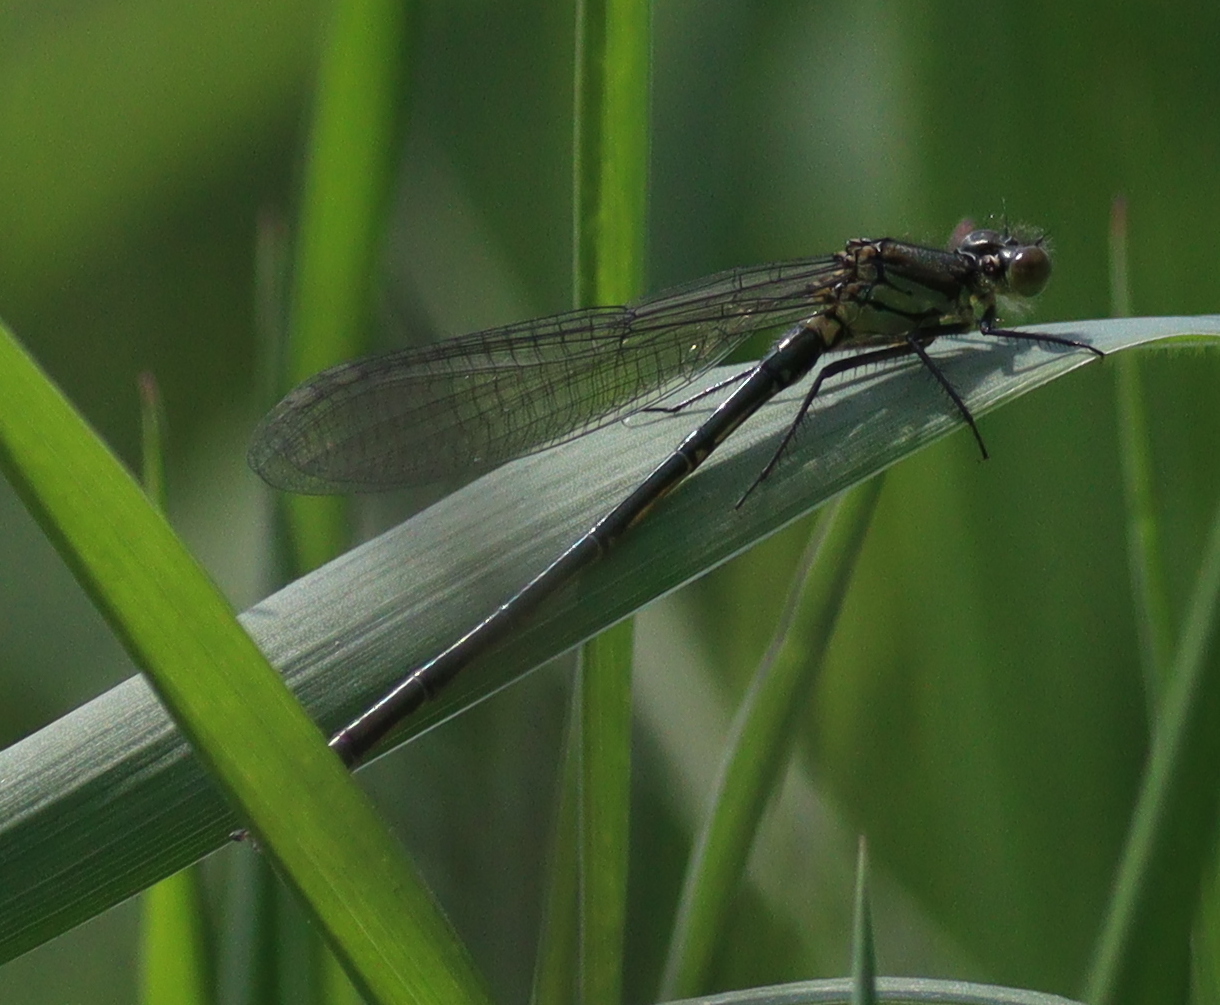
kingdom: Animalia
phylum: Arthropoda
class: Insecta
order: Odonata
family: Coenagrionidae
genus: Erythromma
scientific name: Erythromma najas
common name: Red-eyed damselfly
